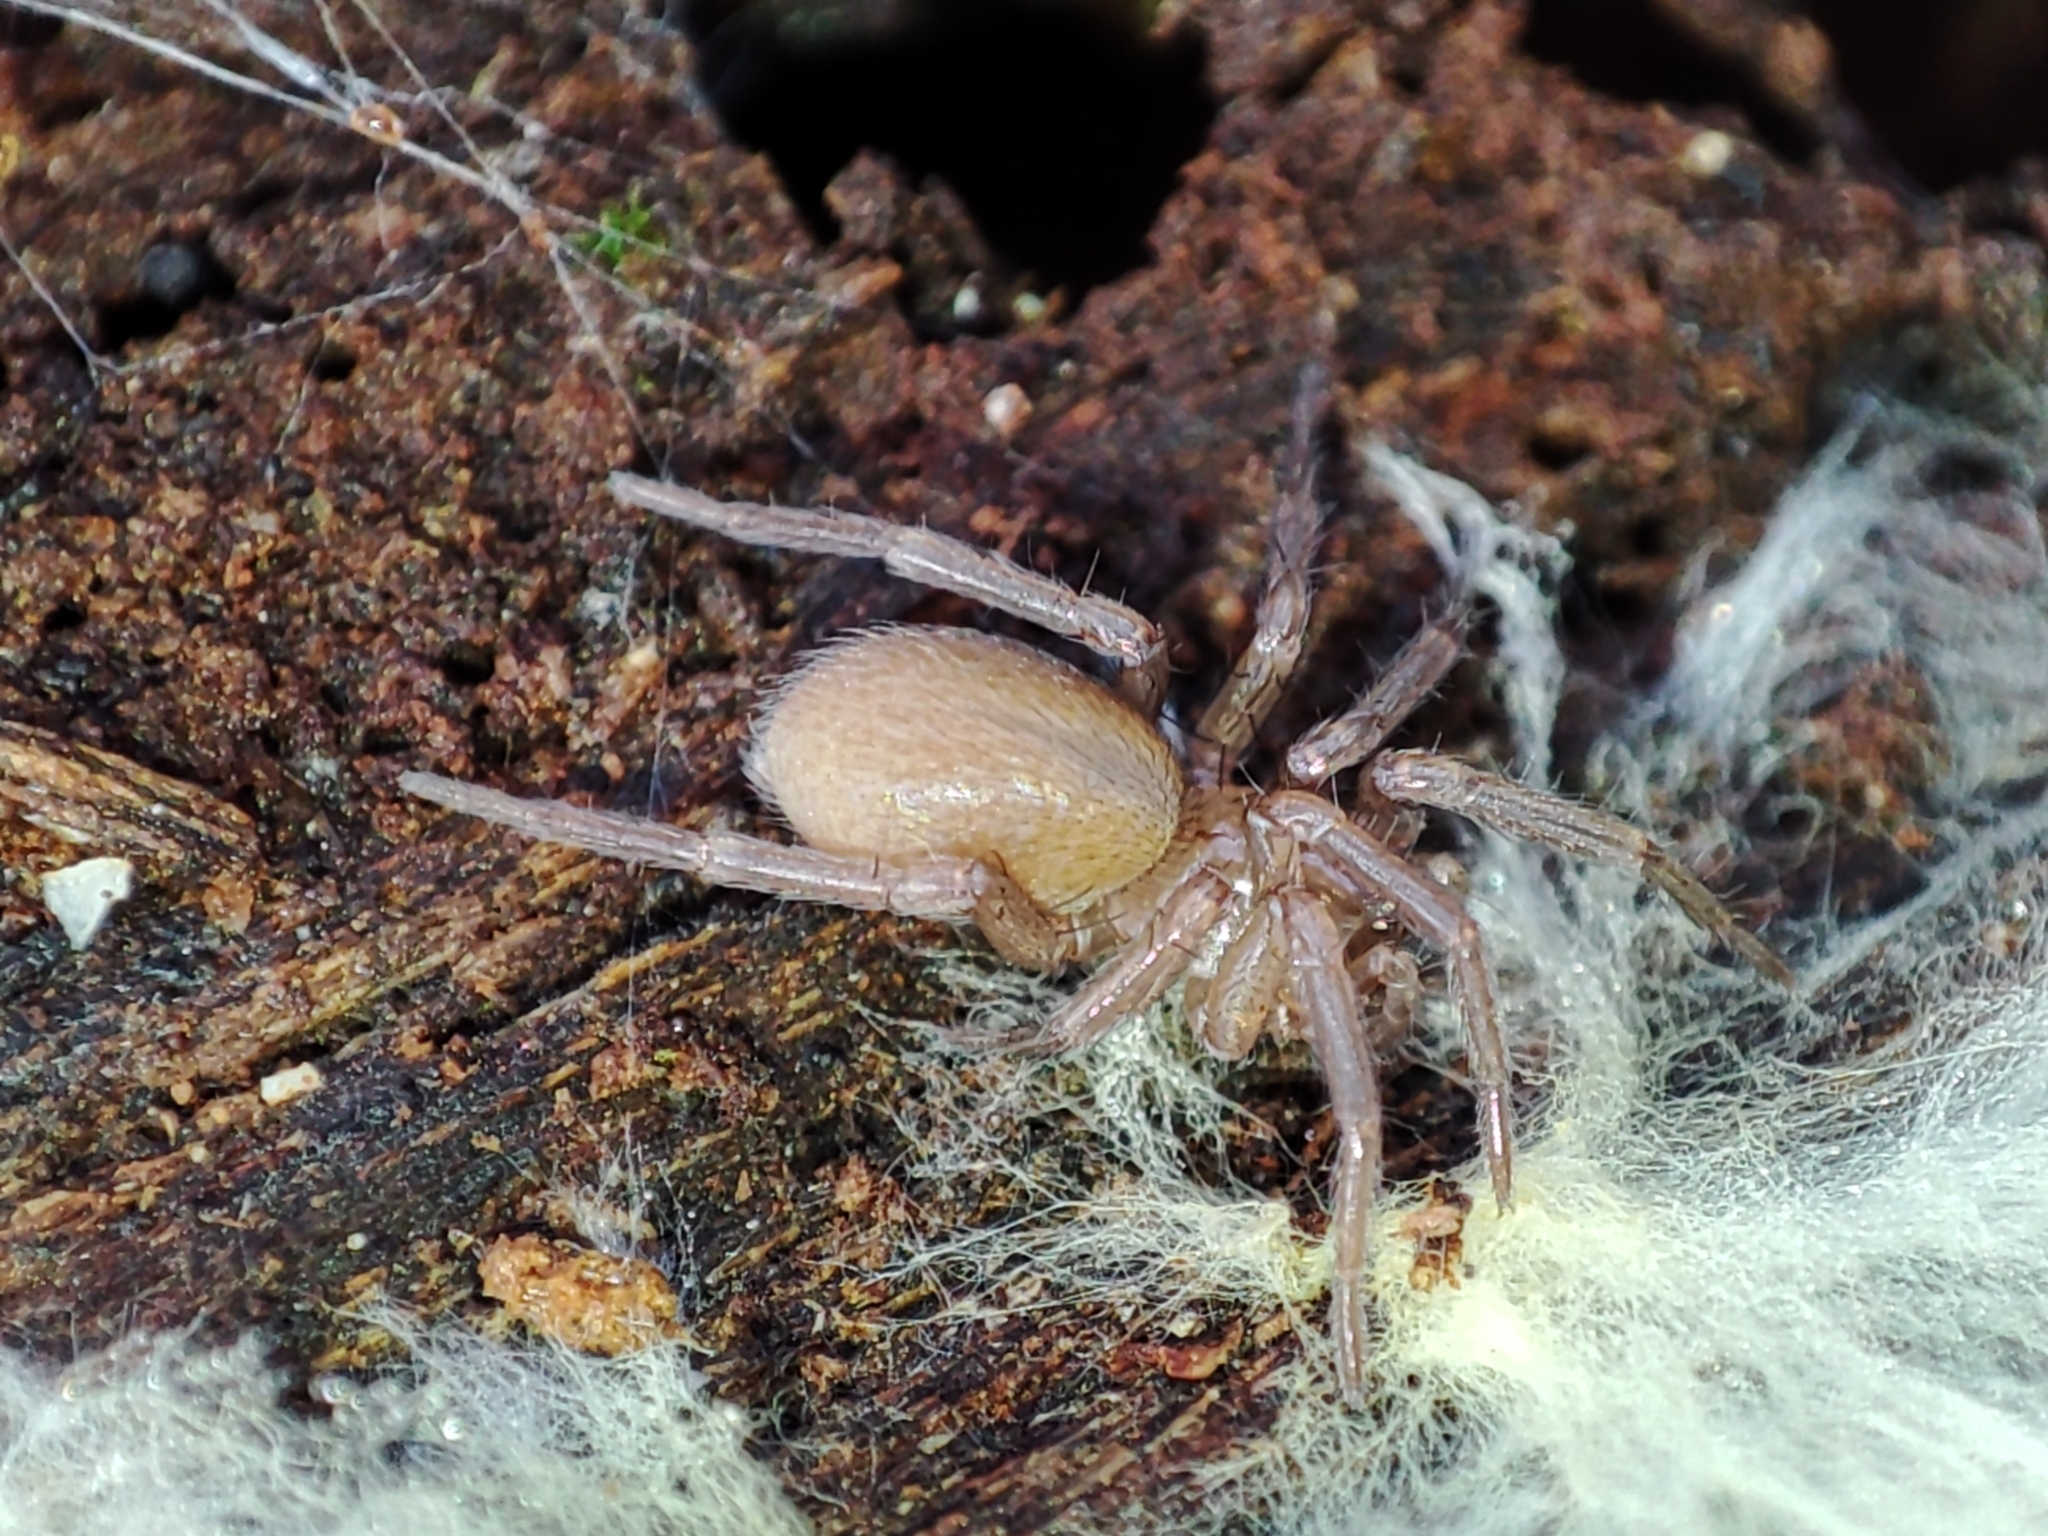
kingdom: Animalia
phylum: Arthropoda
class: Arachnida
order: Araneae
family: Hahniidae
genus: Cicurina
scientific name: Cicurina cicur
